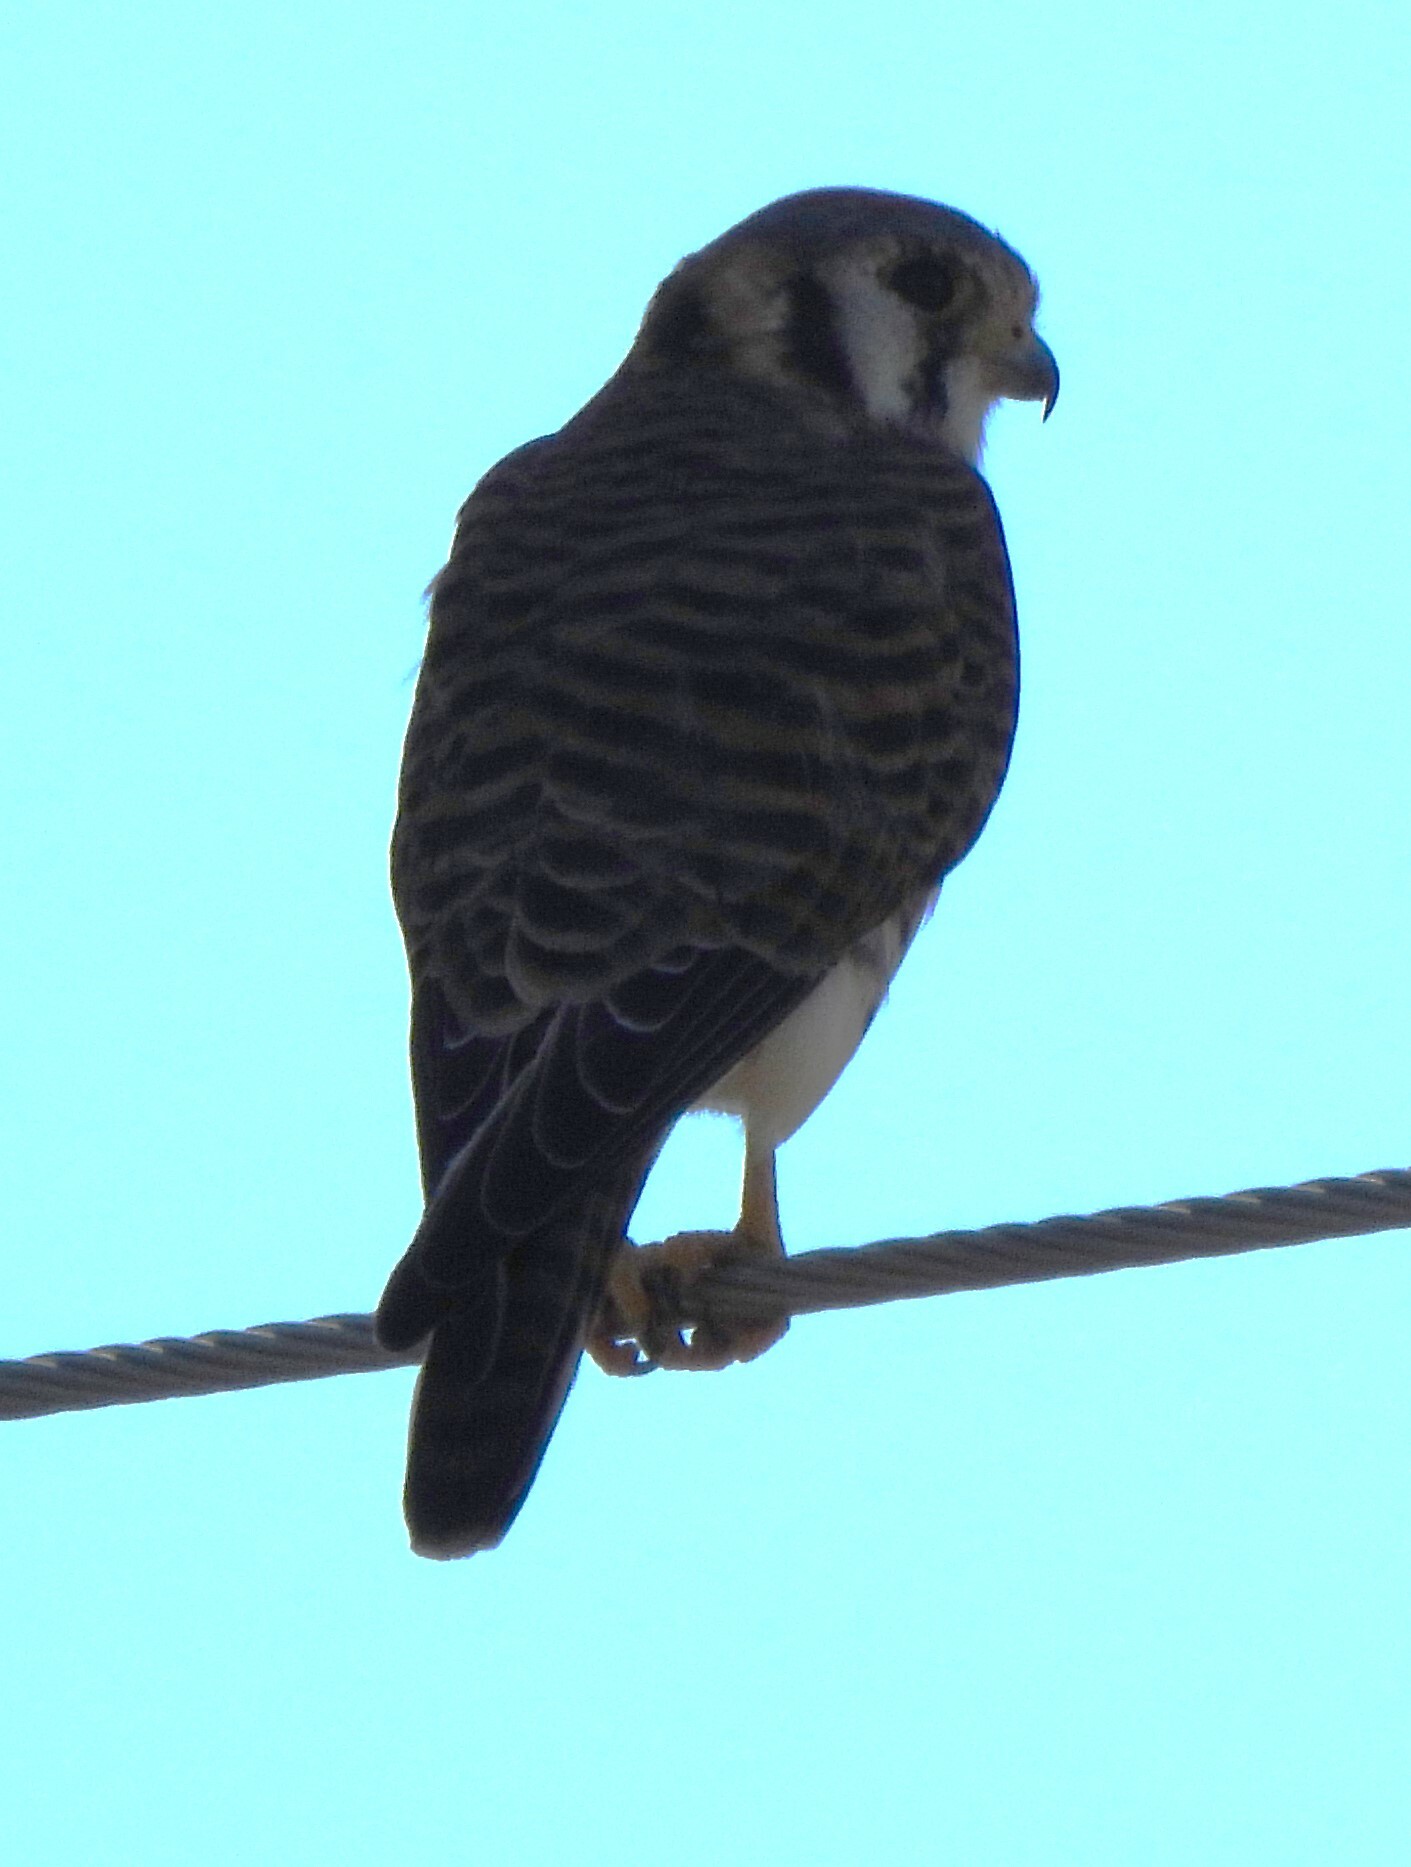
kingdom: Animalia
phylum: Chordata
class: Aves
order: Falconiformes
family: Falconidae
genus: Falco
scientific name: Falco sparverius
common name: American kestrel
